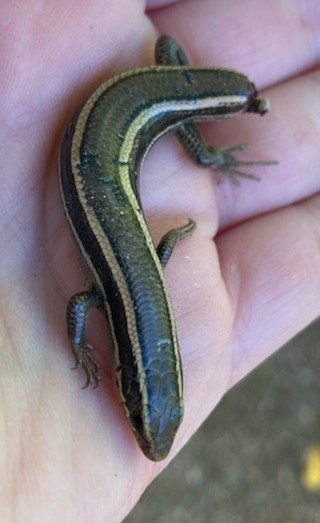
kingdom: Animalia
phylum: Chordata
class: Squamata
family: Scincidae
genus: Plestiodon
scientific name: Plestiodon skiltonianus
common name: Coronado island skink [interparietalis]
